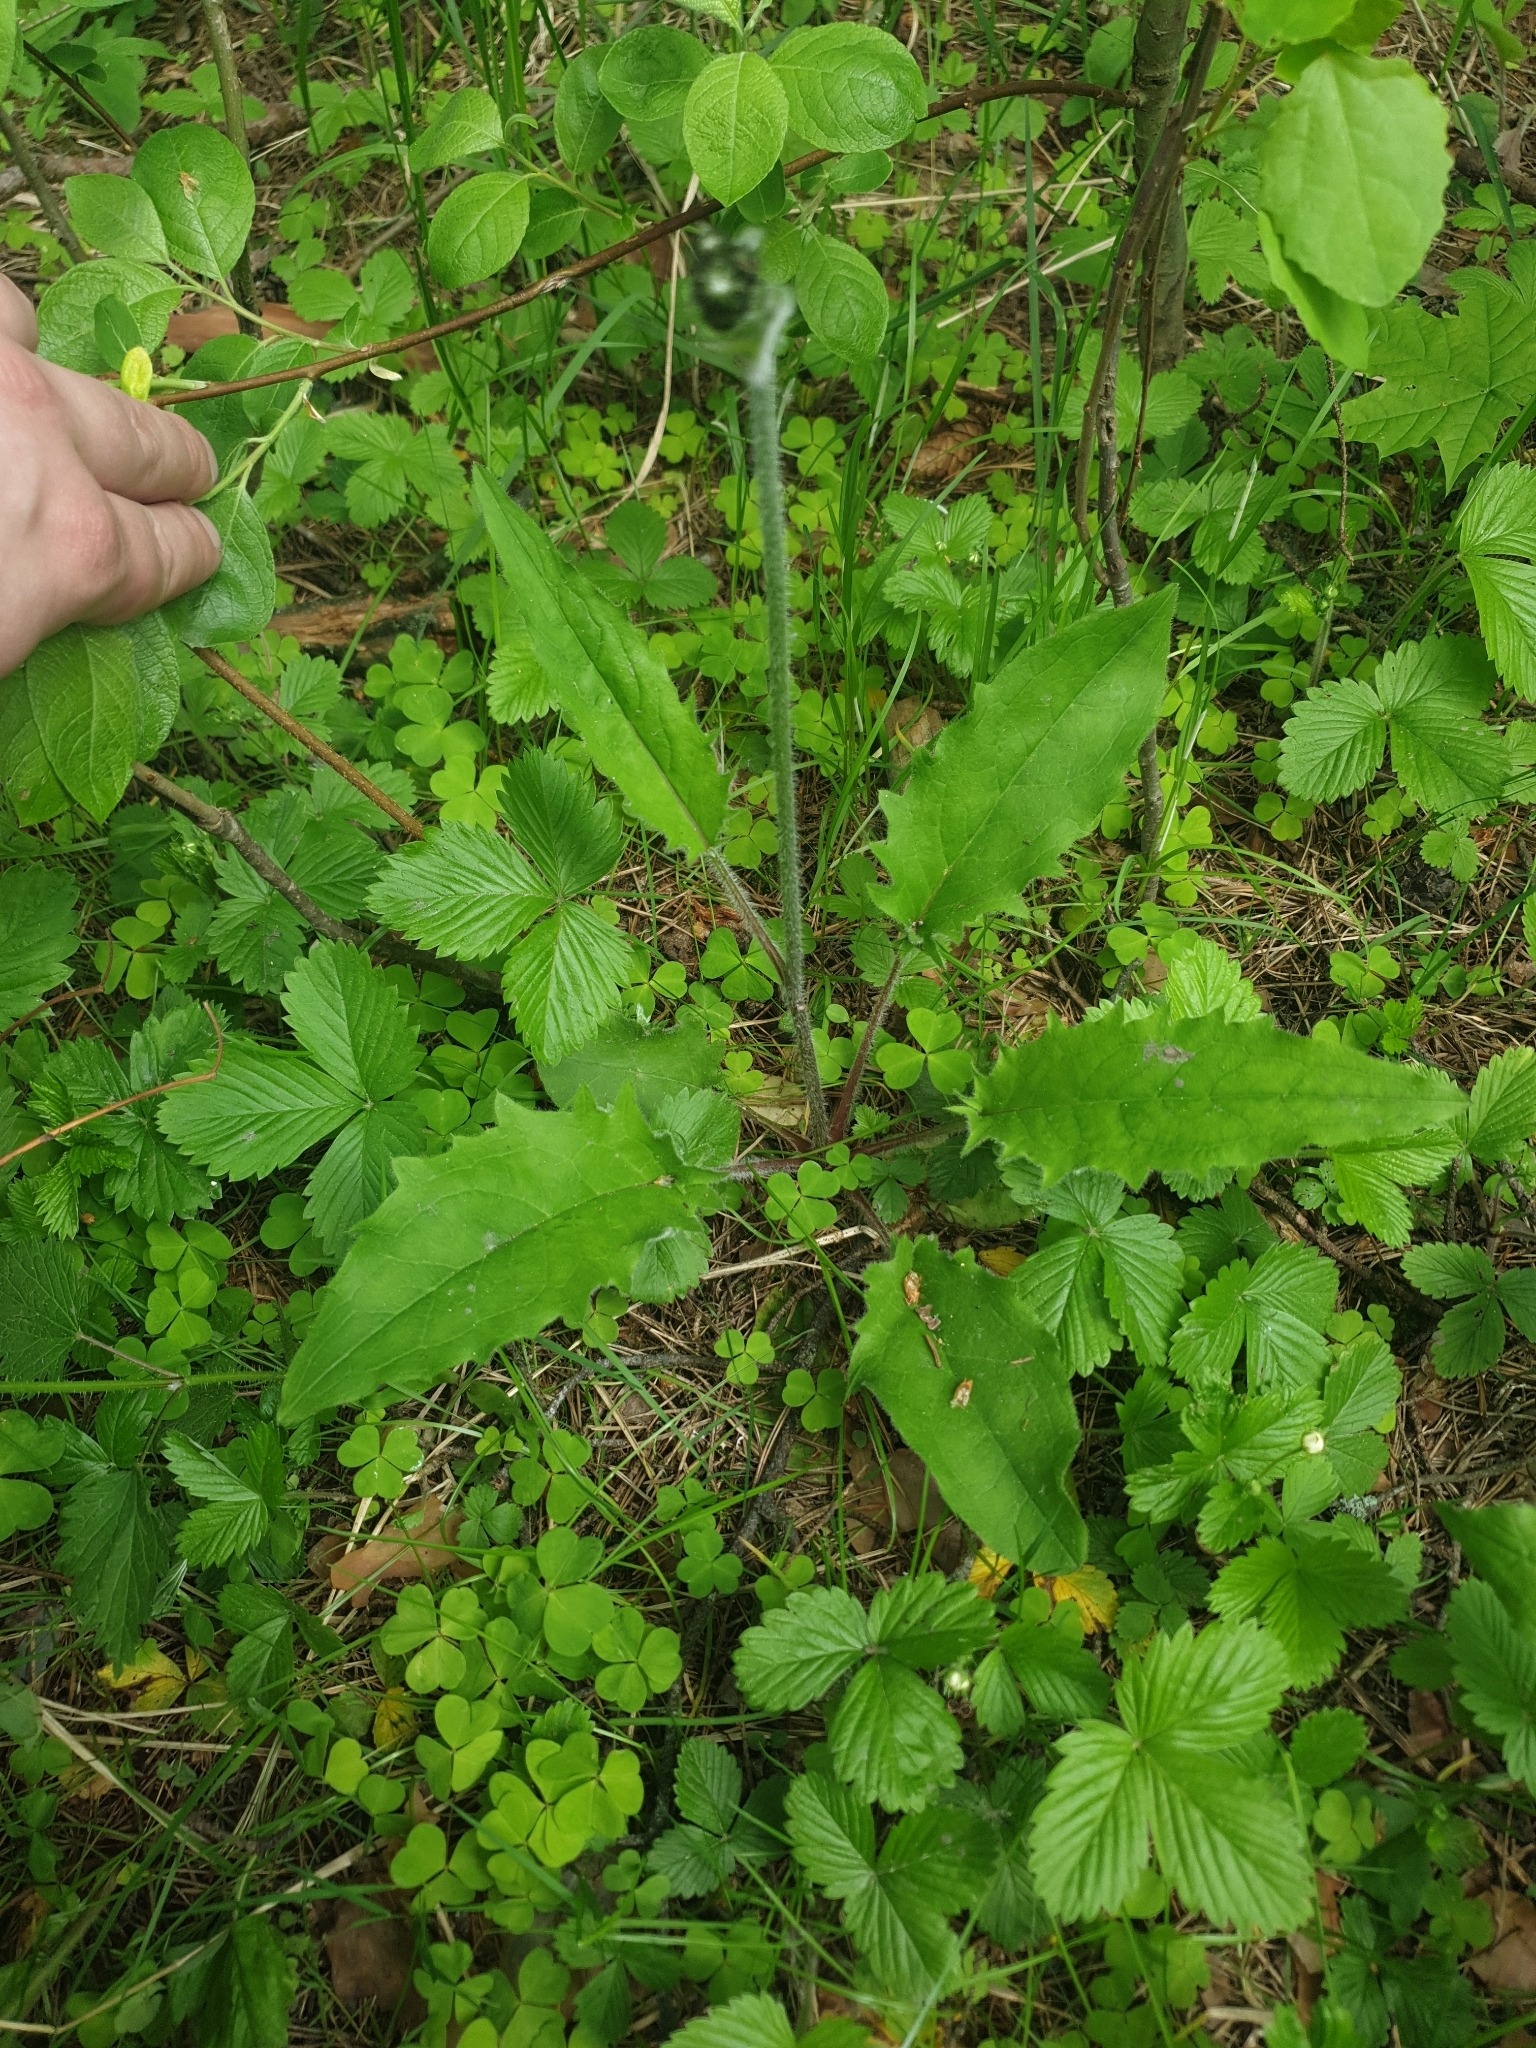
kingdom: Plantae
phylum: Tracheophyta
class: Magnoliopsida
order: Asterales
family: Asteraceae
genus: Hieracium
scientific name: Hieracium murorum
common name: Wall hawkweed
